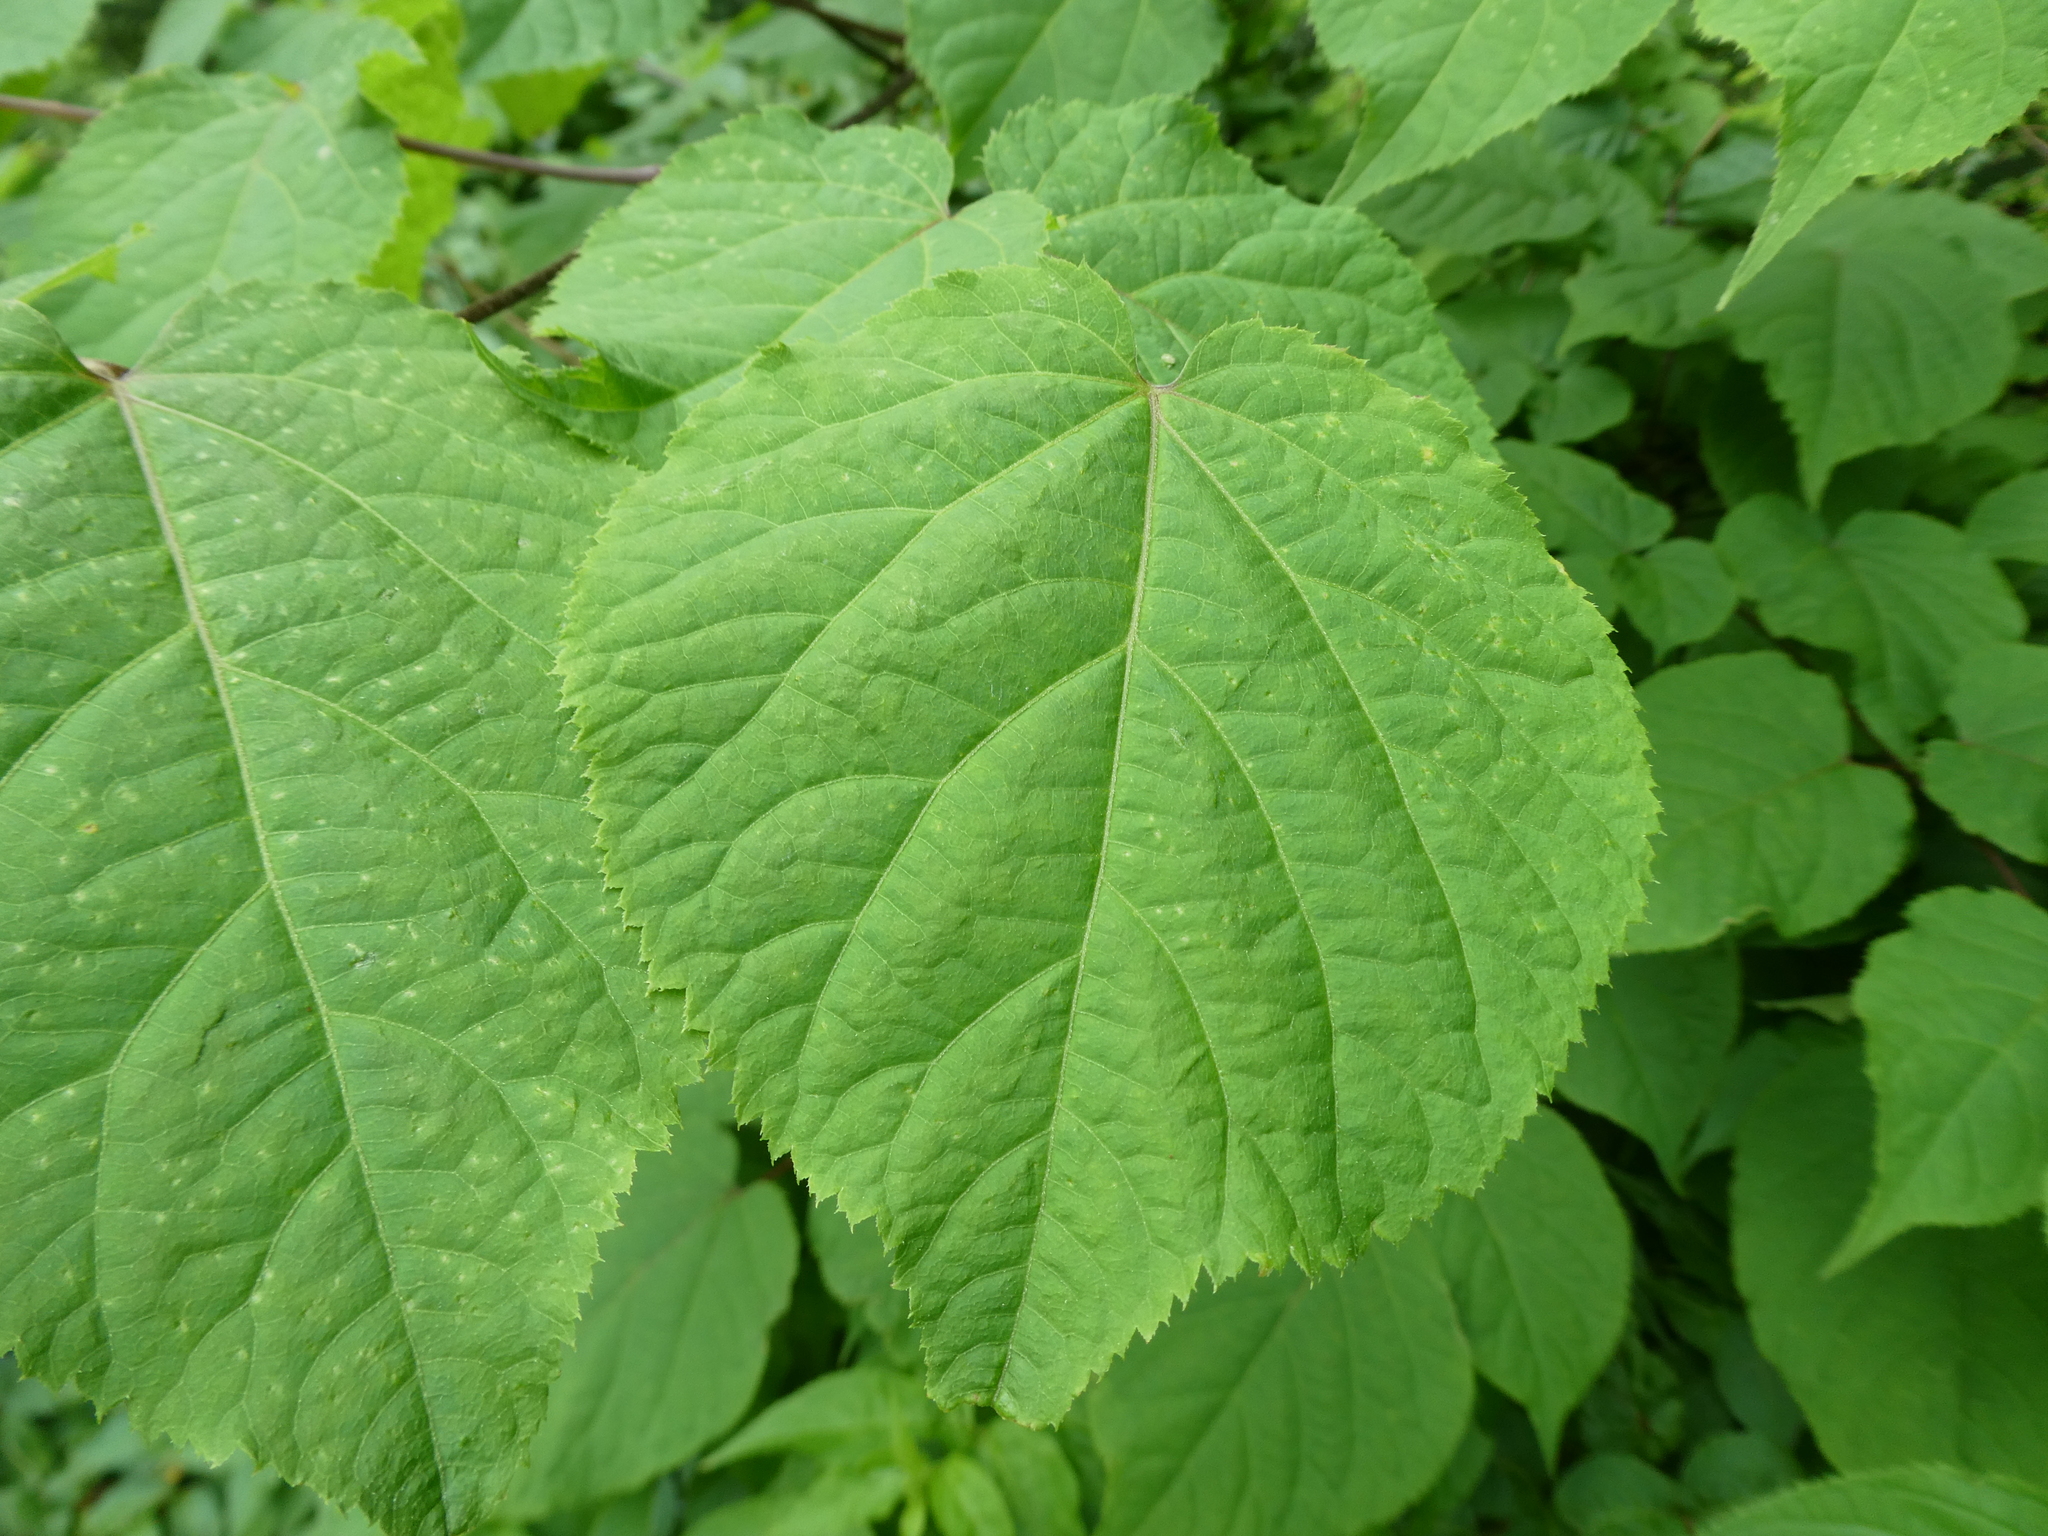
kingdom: Plantae
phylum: Tracheophyta
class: Magnoliopsida
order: Apiales
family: Araliaceae
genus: Aralia
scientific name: Aralia racemosa
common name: American-spikenard
